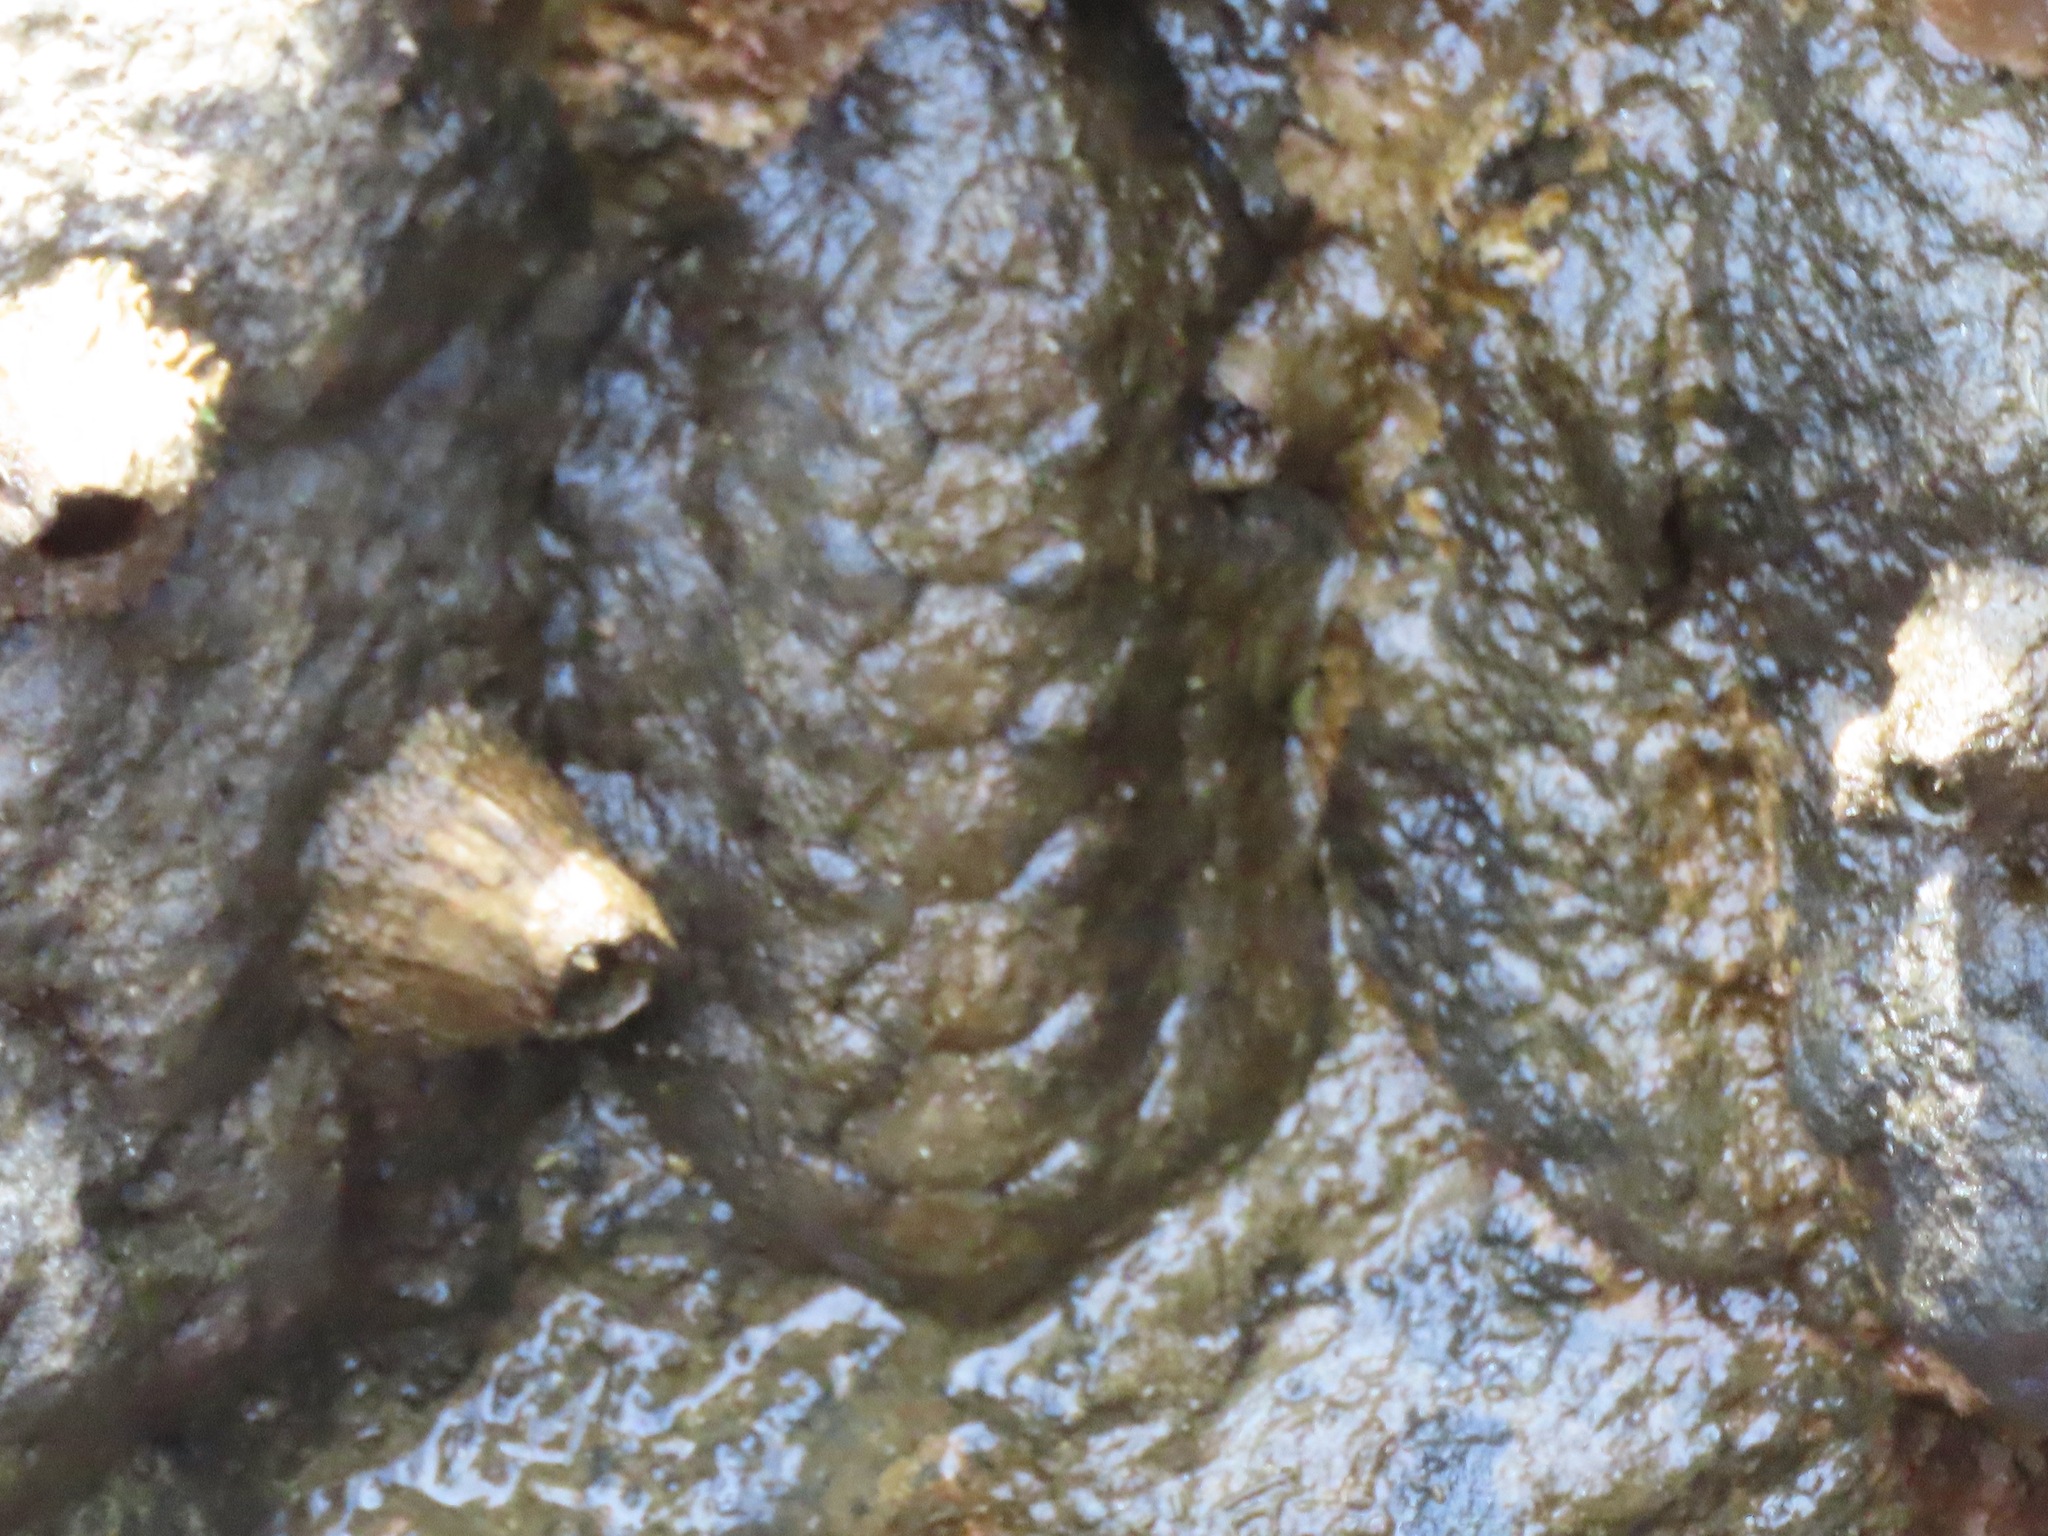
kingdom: Animalia
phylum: Mollusca
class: Polyplacophora
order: Chitonida
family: Mopaliidae
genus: Katharina
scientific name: Katharina tunicata
